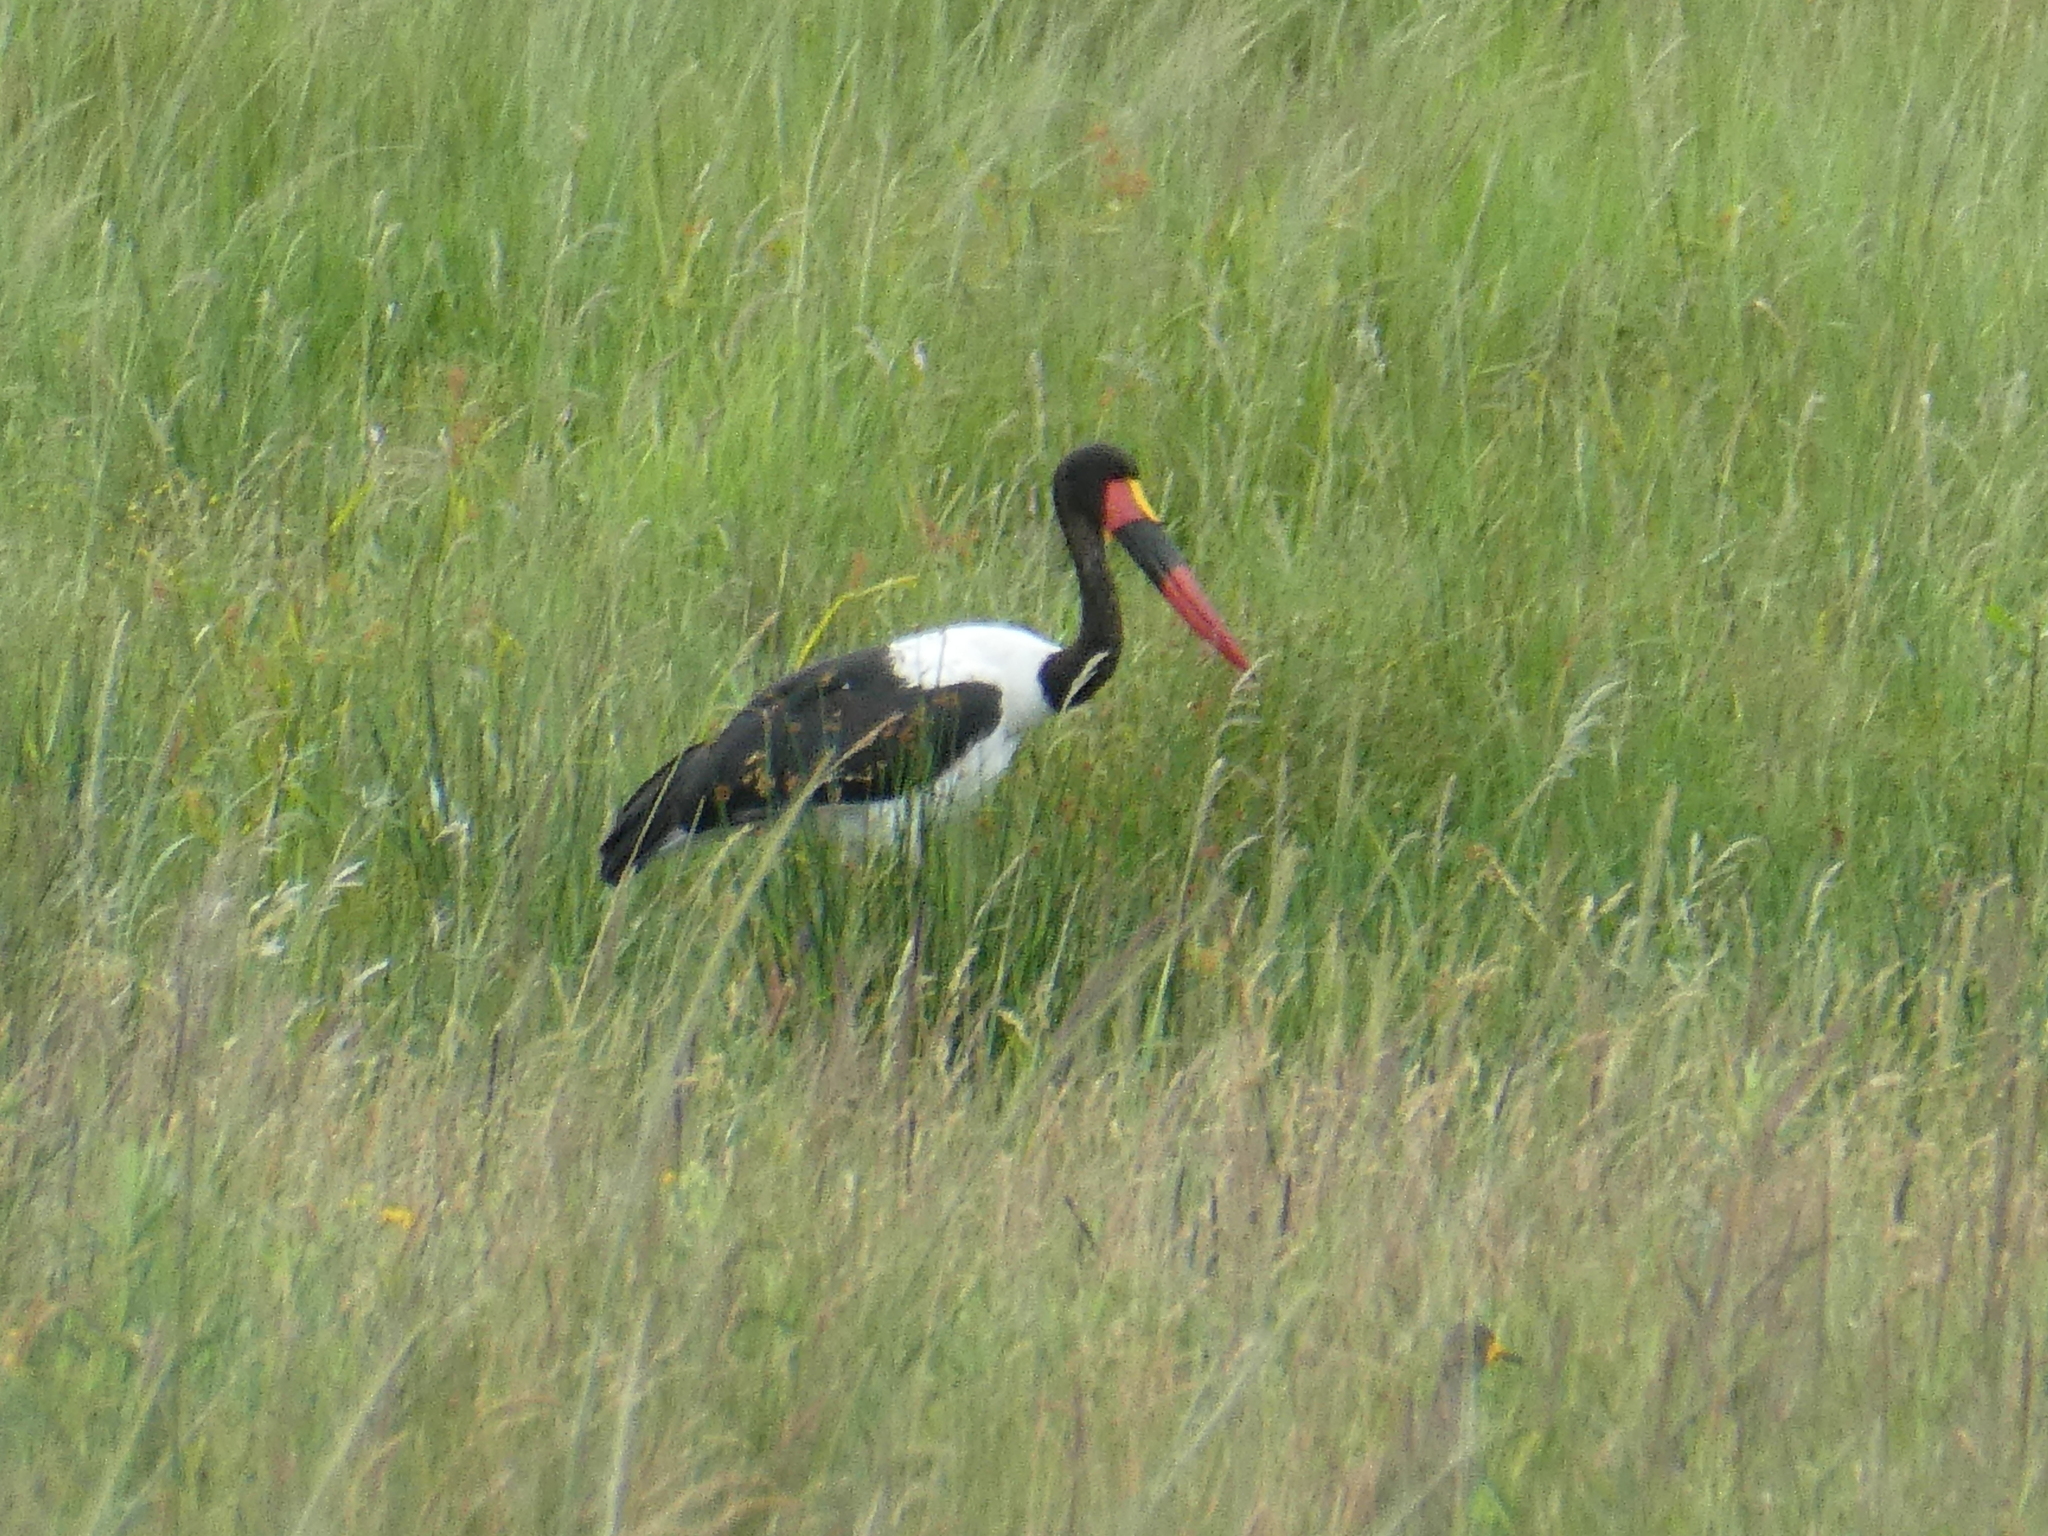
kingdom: Animalia
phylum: Chordata
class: Aves
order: Ciconiiformes
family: Ciconiidae
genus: Ephippiorhynchus
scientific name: Ephippiorhynchus senegalensis
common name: Saddle-billed stork
